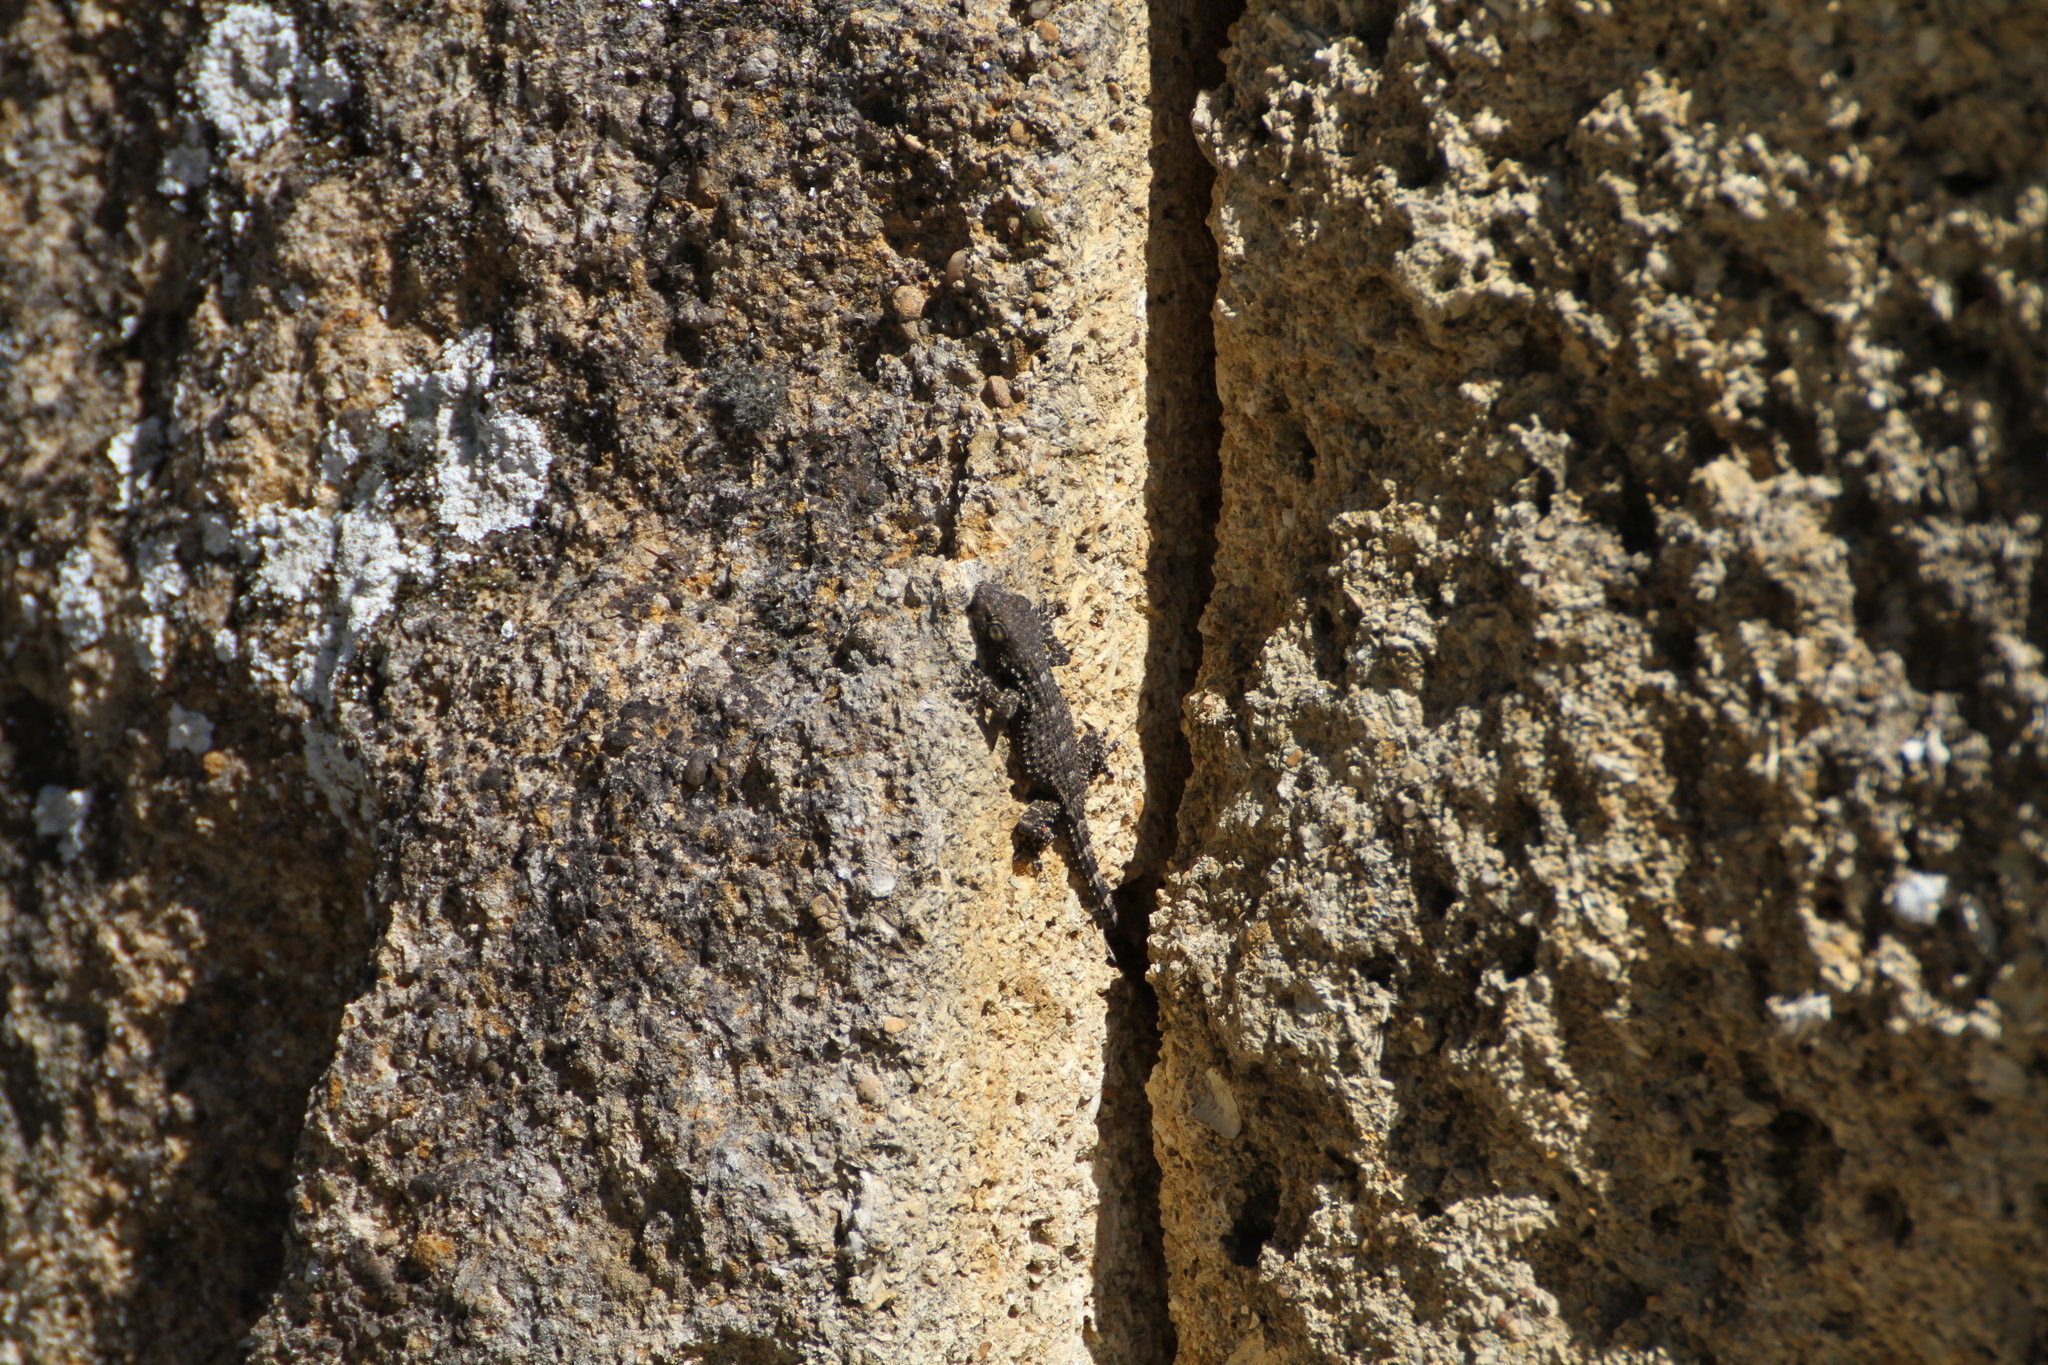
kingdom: Animalia
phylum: Chordata
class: Squamata
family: Phyllodactylidae
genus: Tarentola
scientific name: Tarentola mauritanica
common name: Moorish gecko
